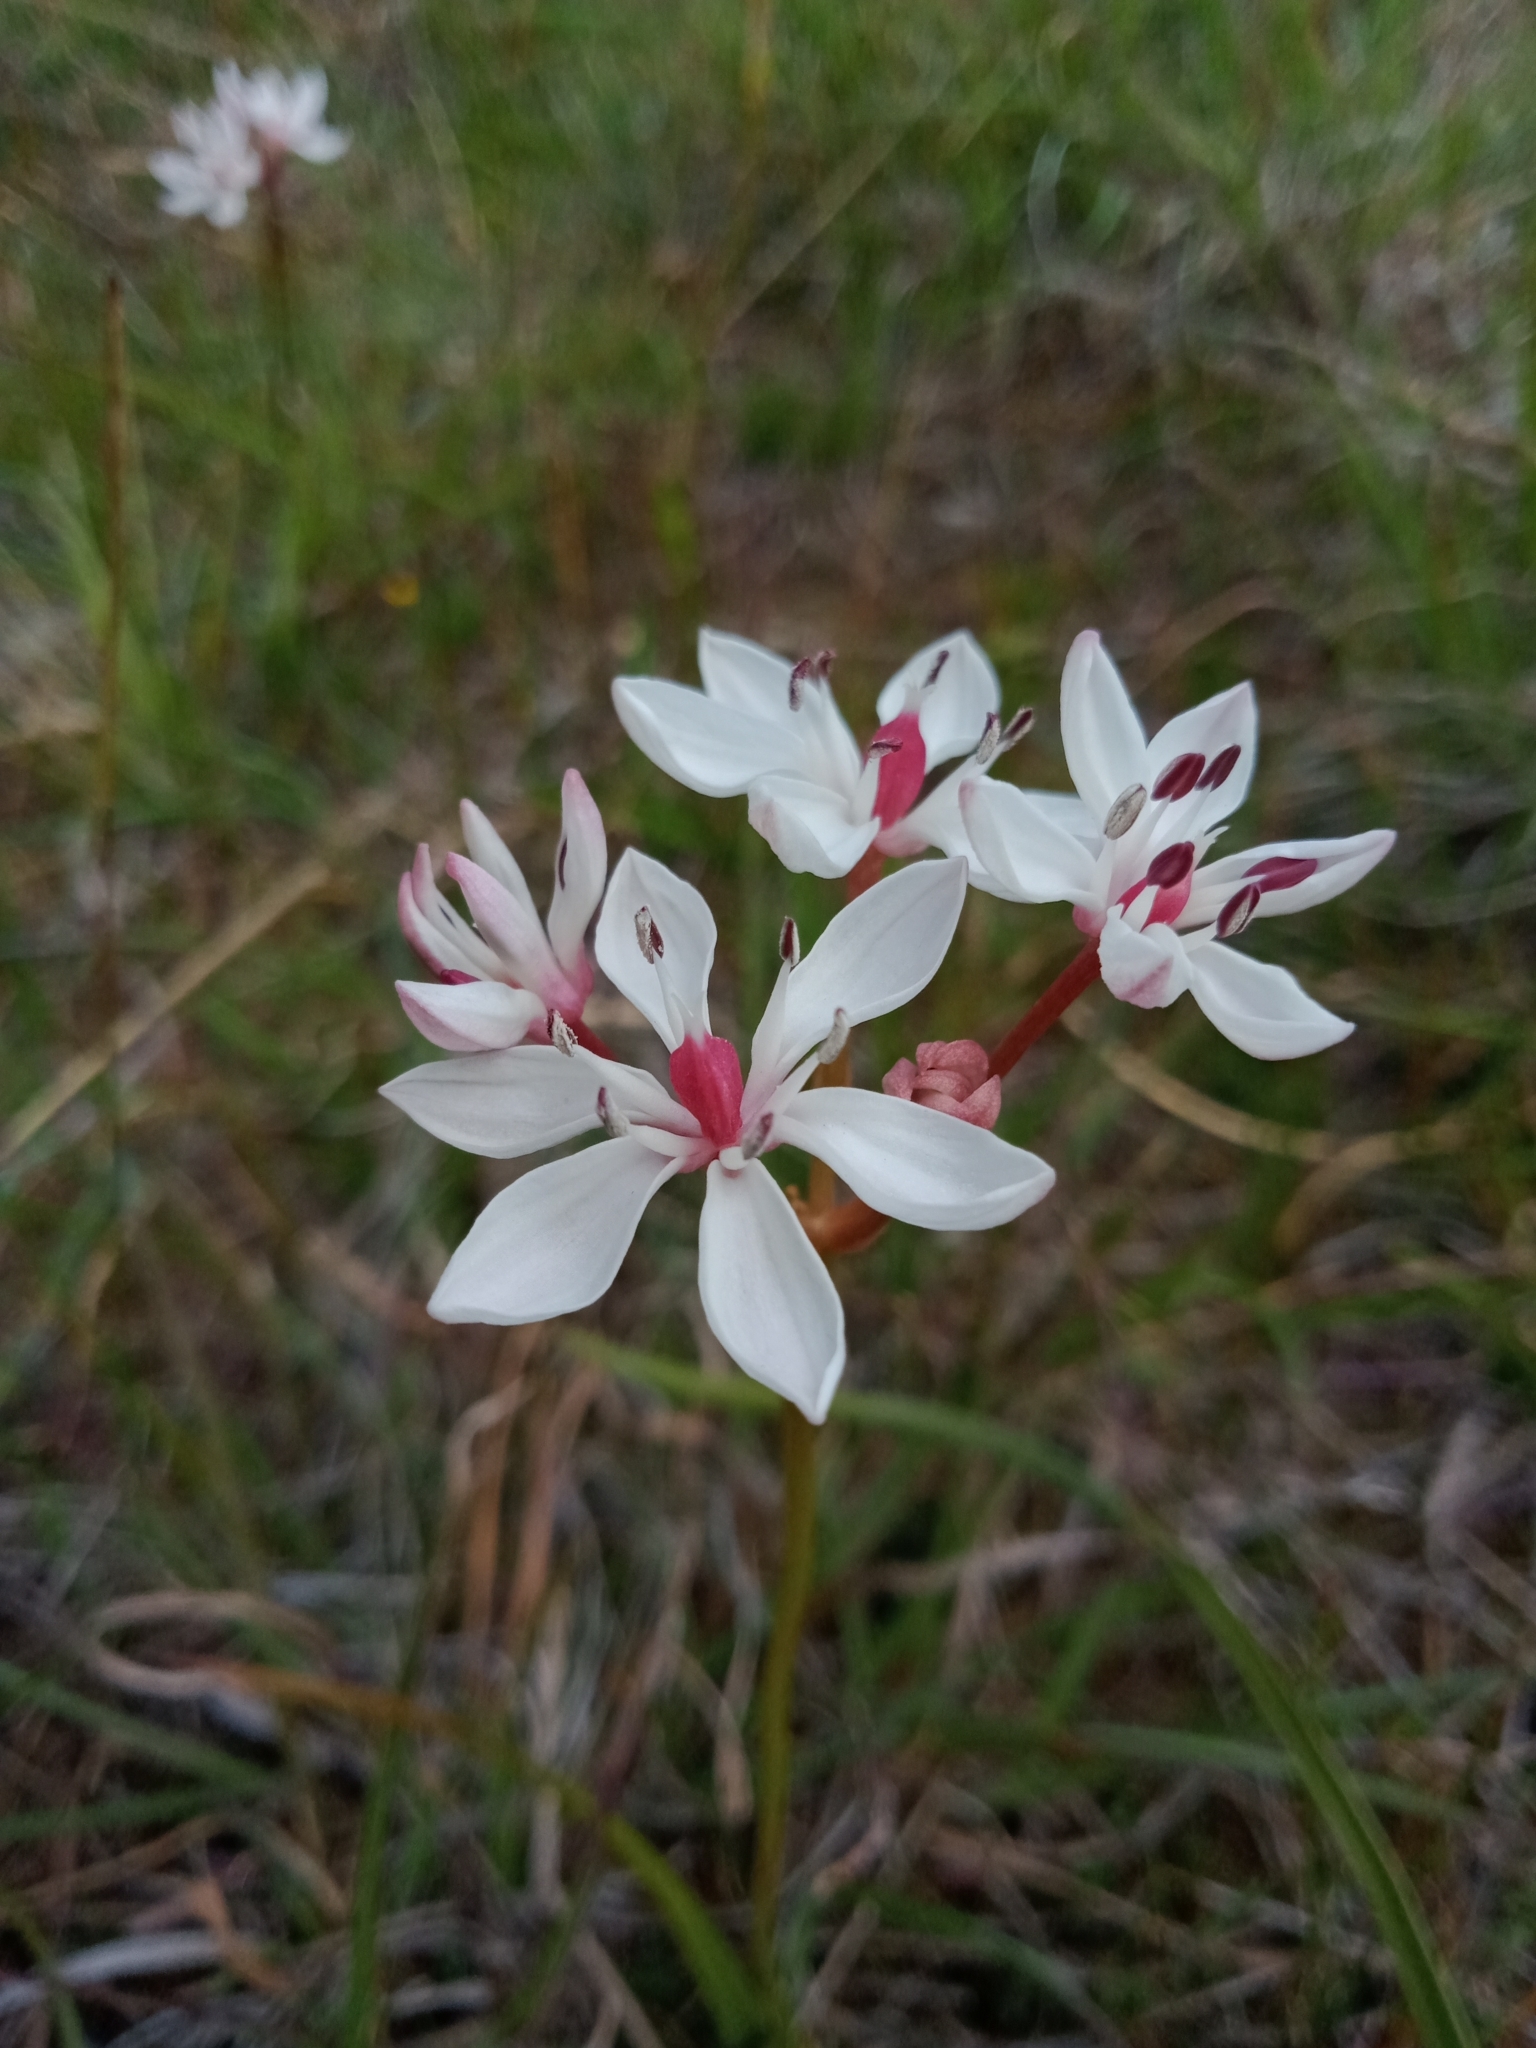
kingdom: Plantae
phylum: Tracheophyta
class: Liliopsida
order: Liliales
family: Colchicaceae
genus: Burchardia
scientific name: Burchardia umbellata
